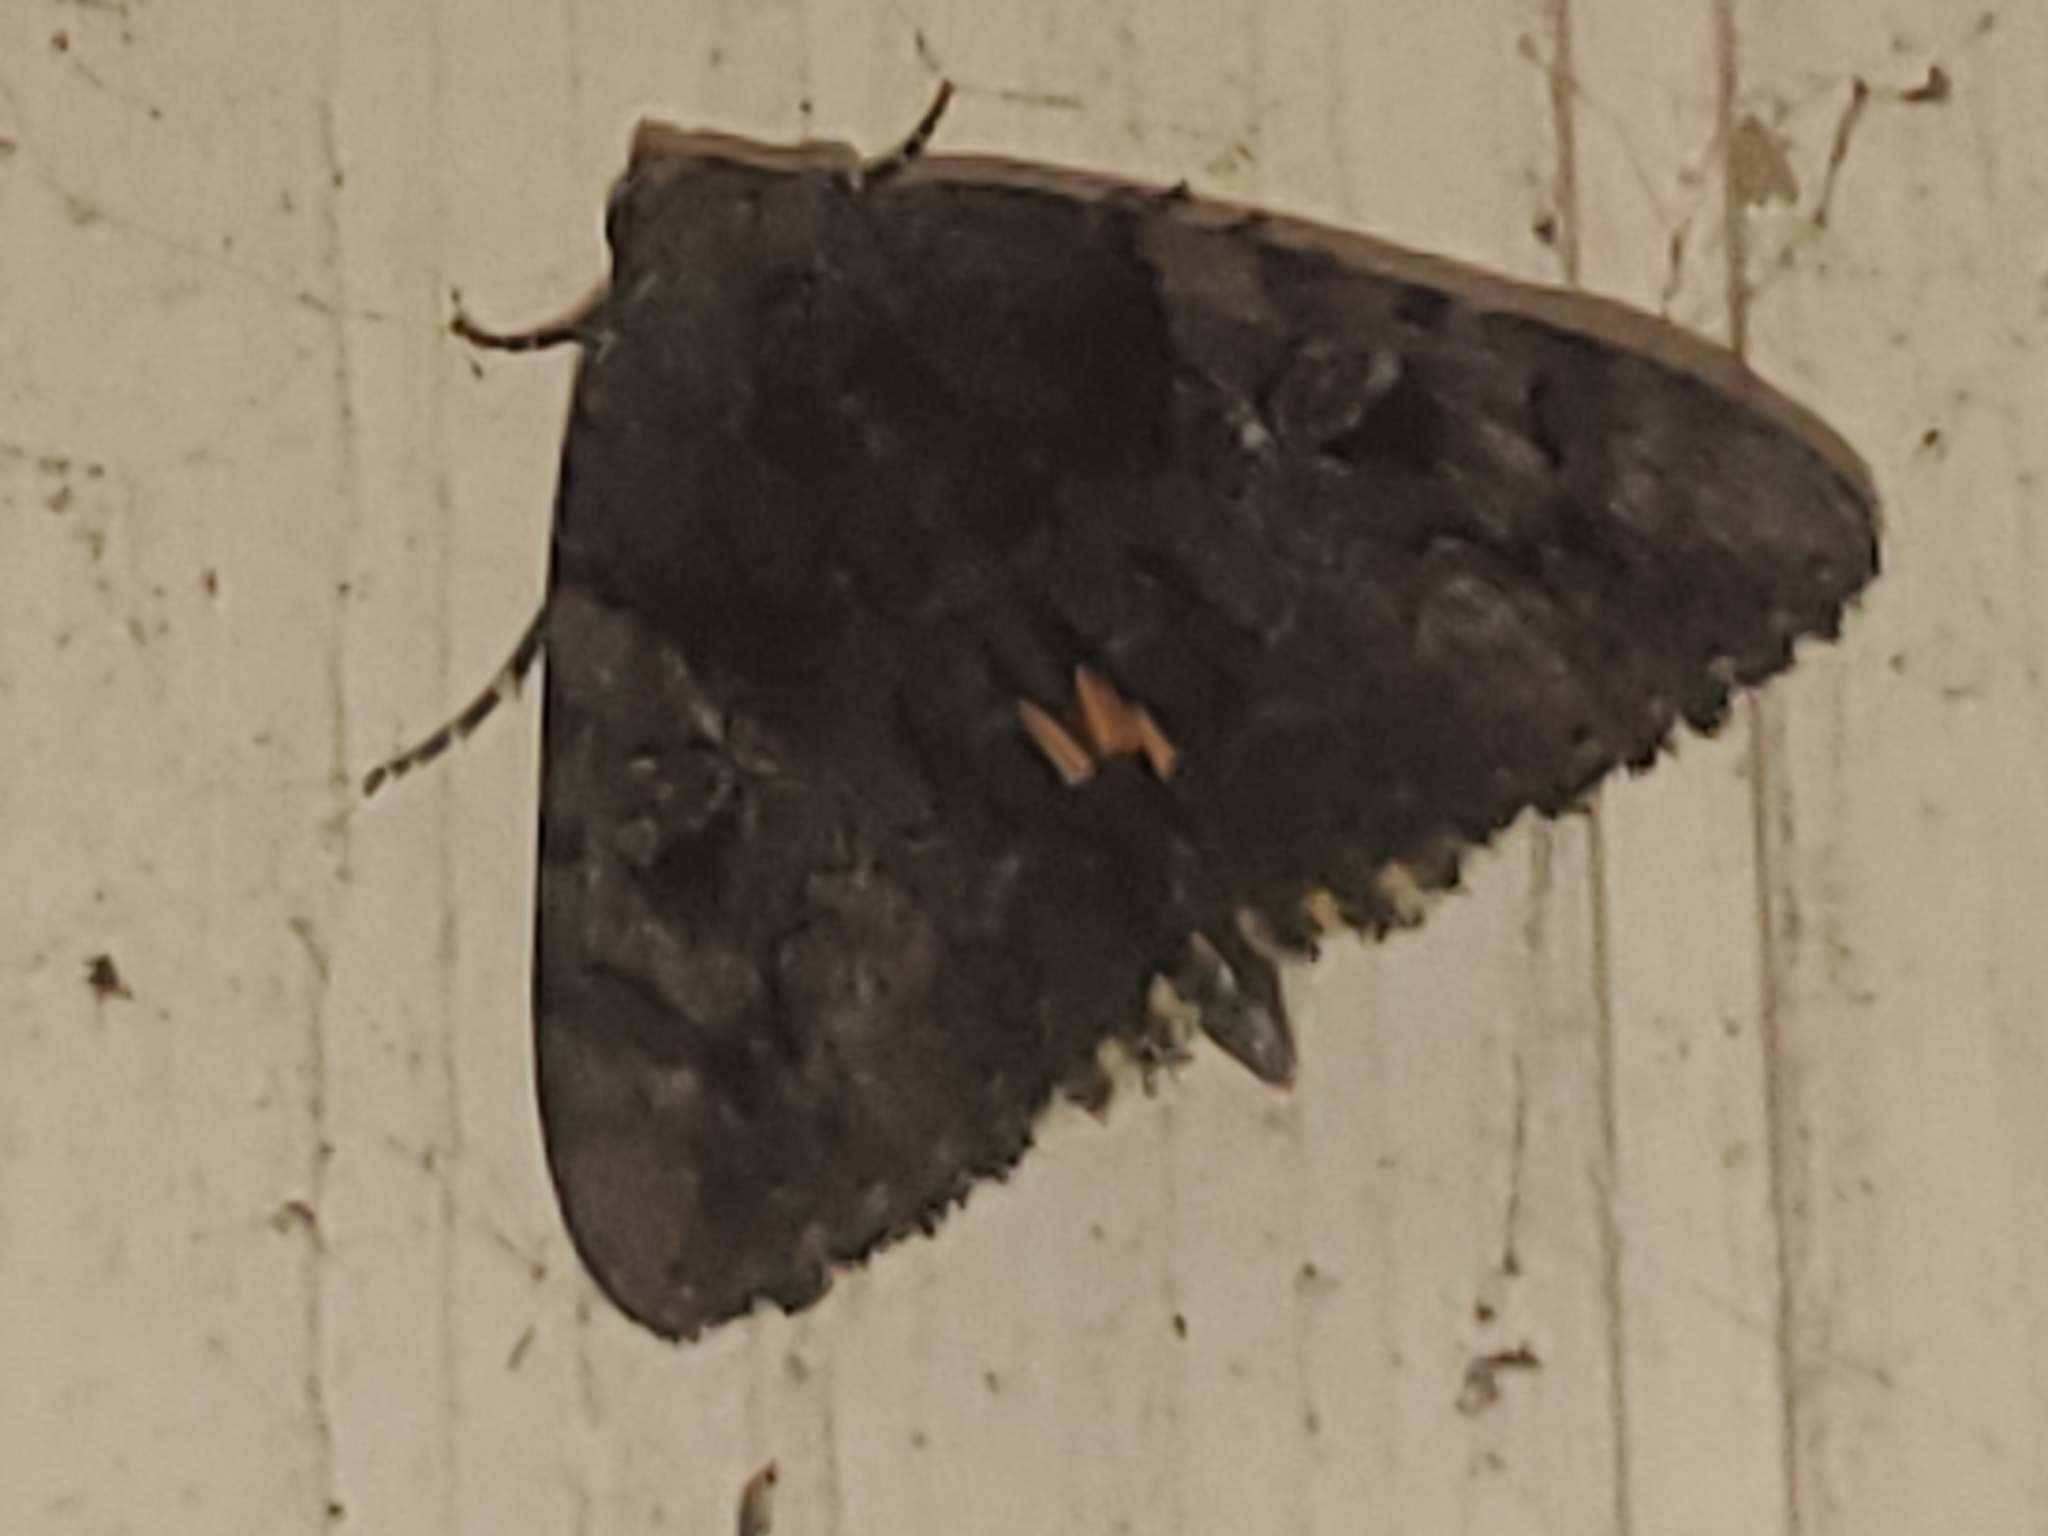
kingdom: Animalia
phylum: Arthropoda
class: Insecta
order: Lepidoptera
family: Erebidae
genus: Catocala
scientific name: Catocala muliercula
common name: The little wife underwing
